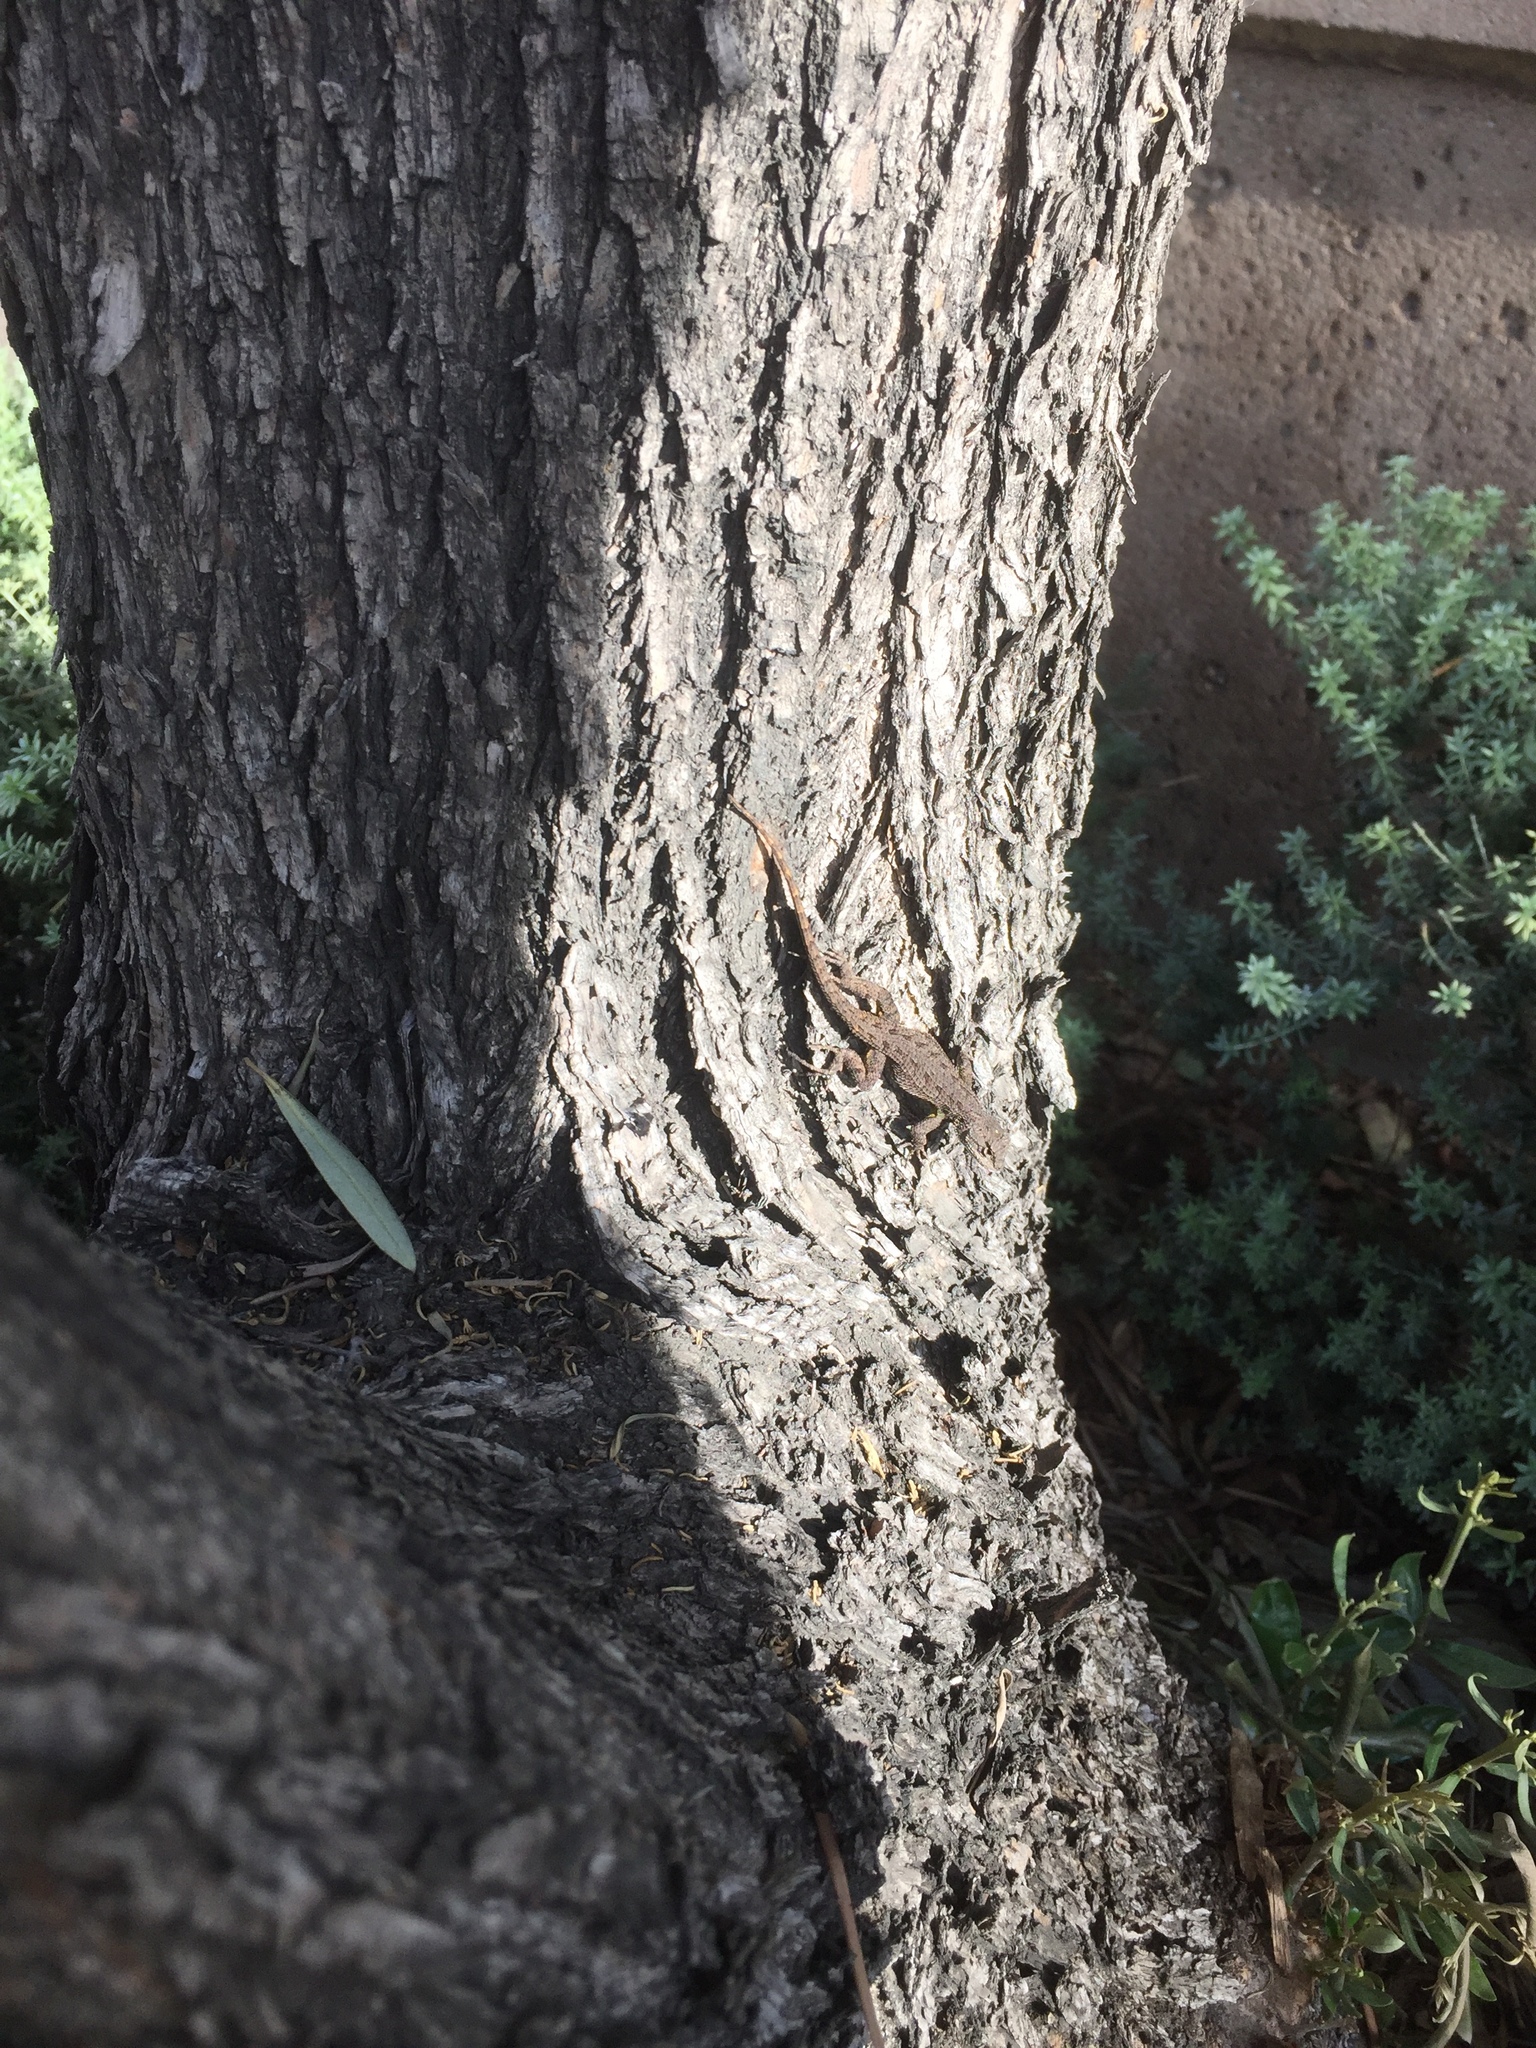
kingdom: Animalia
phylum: Chordata
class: Squamata
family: Phrynosomatidae
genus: Sceloporus
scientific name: Sceloporus occidentalis
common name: Western fence lizard
